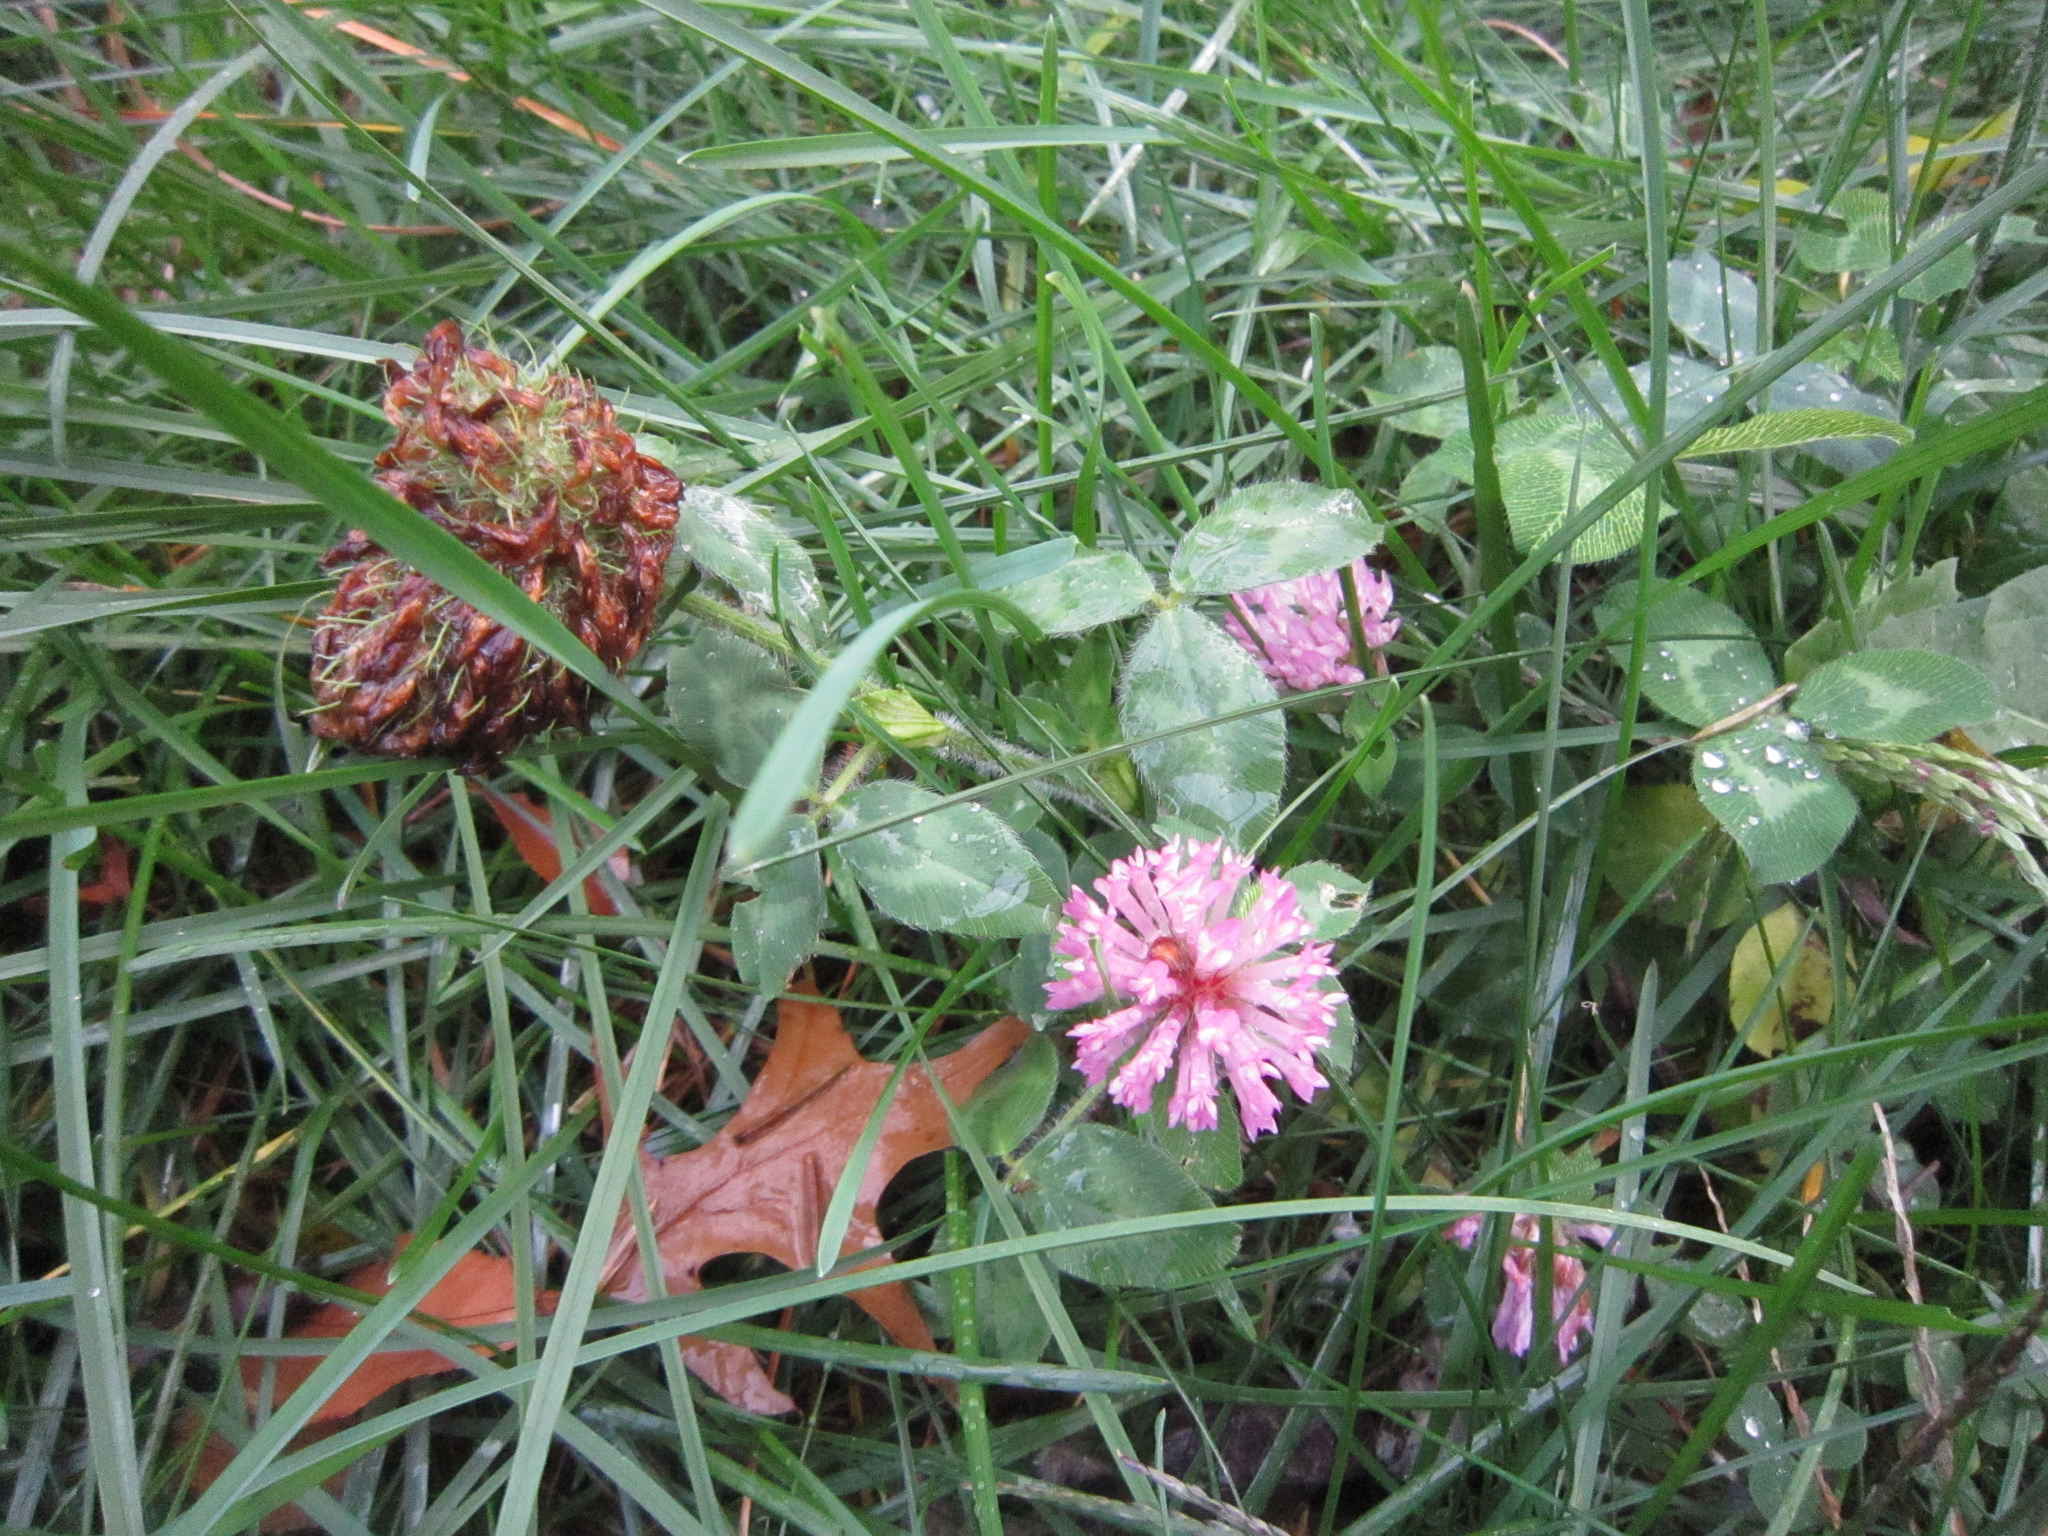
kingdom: Plantae
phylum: Tracheophyta
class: Magnoliopsida
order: Fabales
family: Fabaceae
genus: Trifolium
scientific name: Trifolium pratense
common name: Red clover
